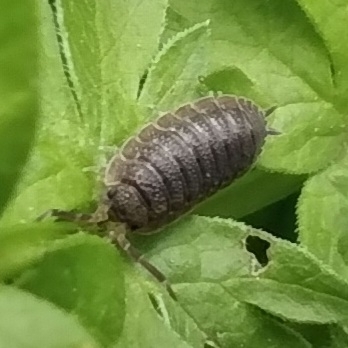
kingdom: Animalia
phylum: Arthropoda
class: Malacostraca
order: Isopoda
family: Porcellionidae
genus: Porcellio
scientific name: Porcellio scaber
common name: Common rough woodlouse
